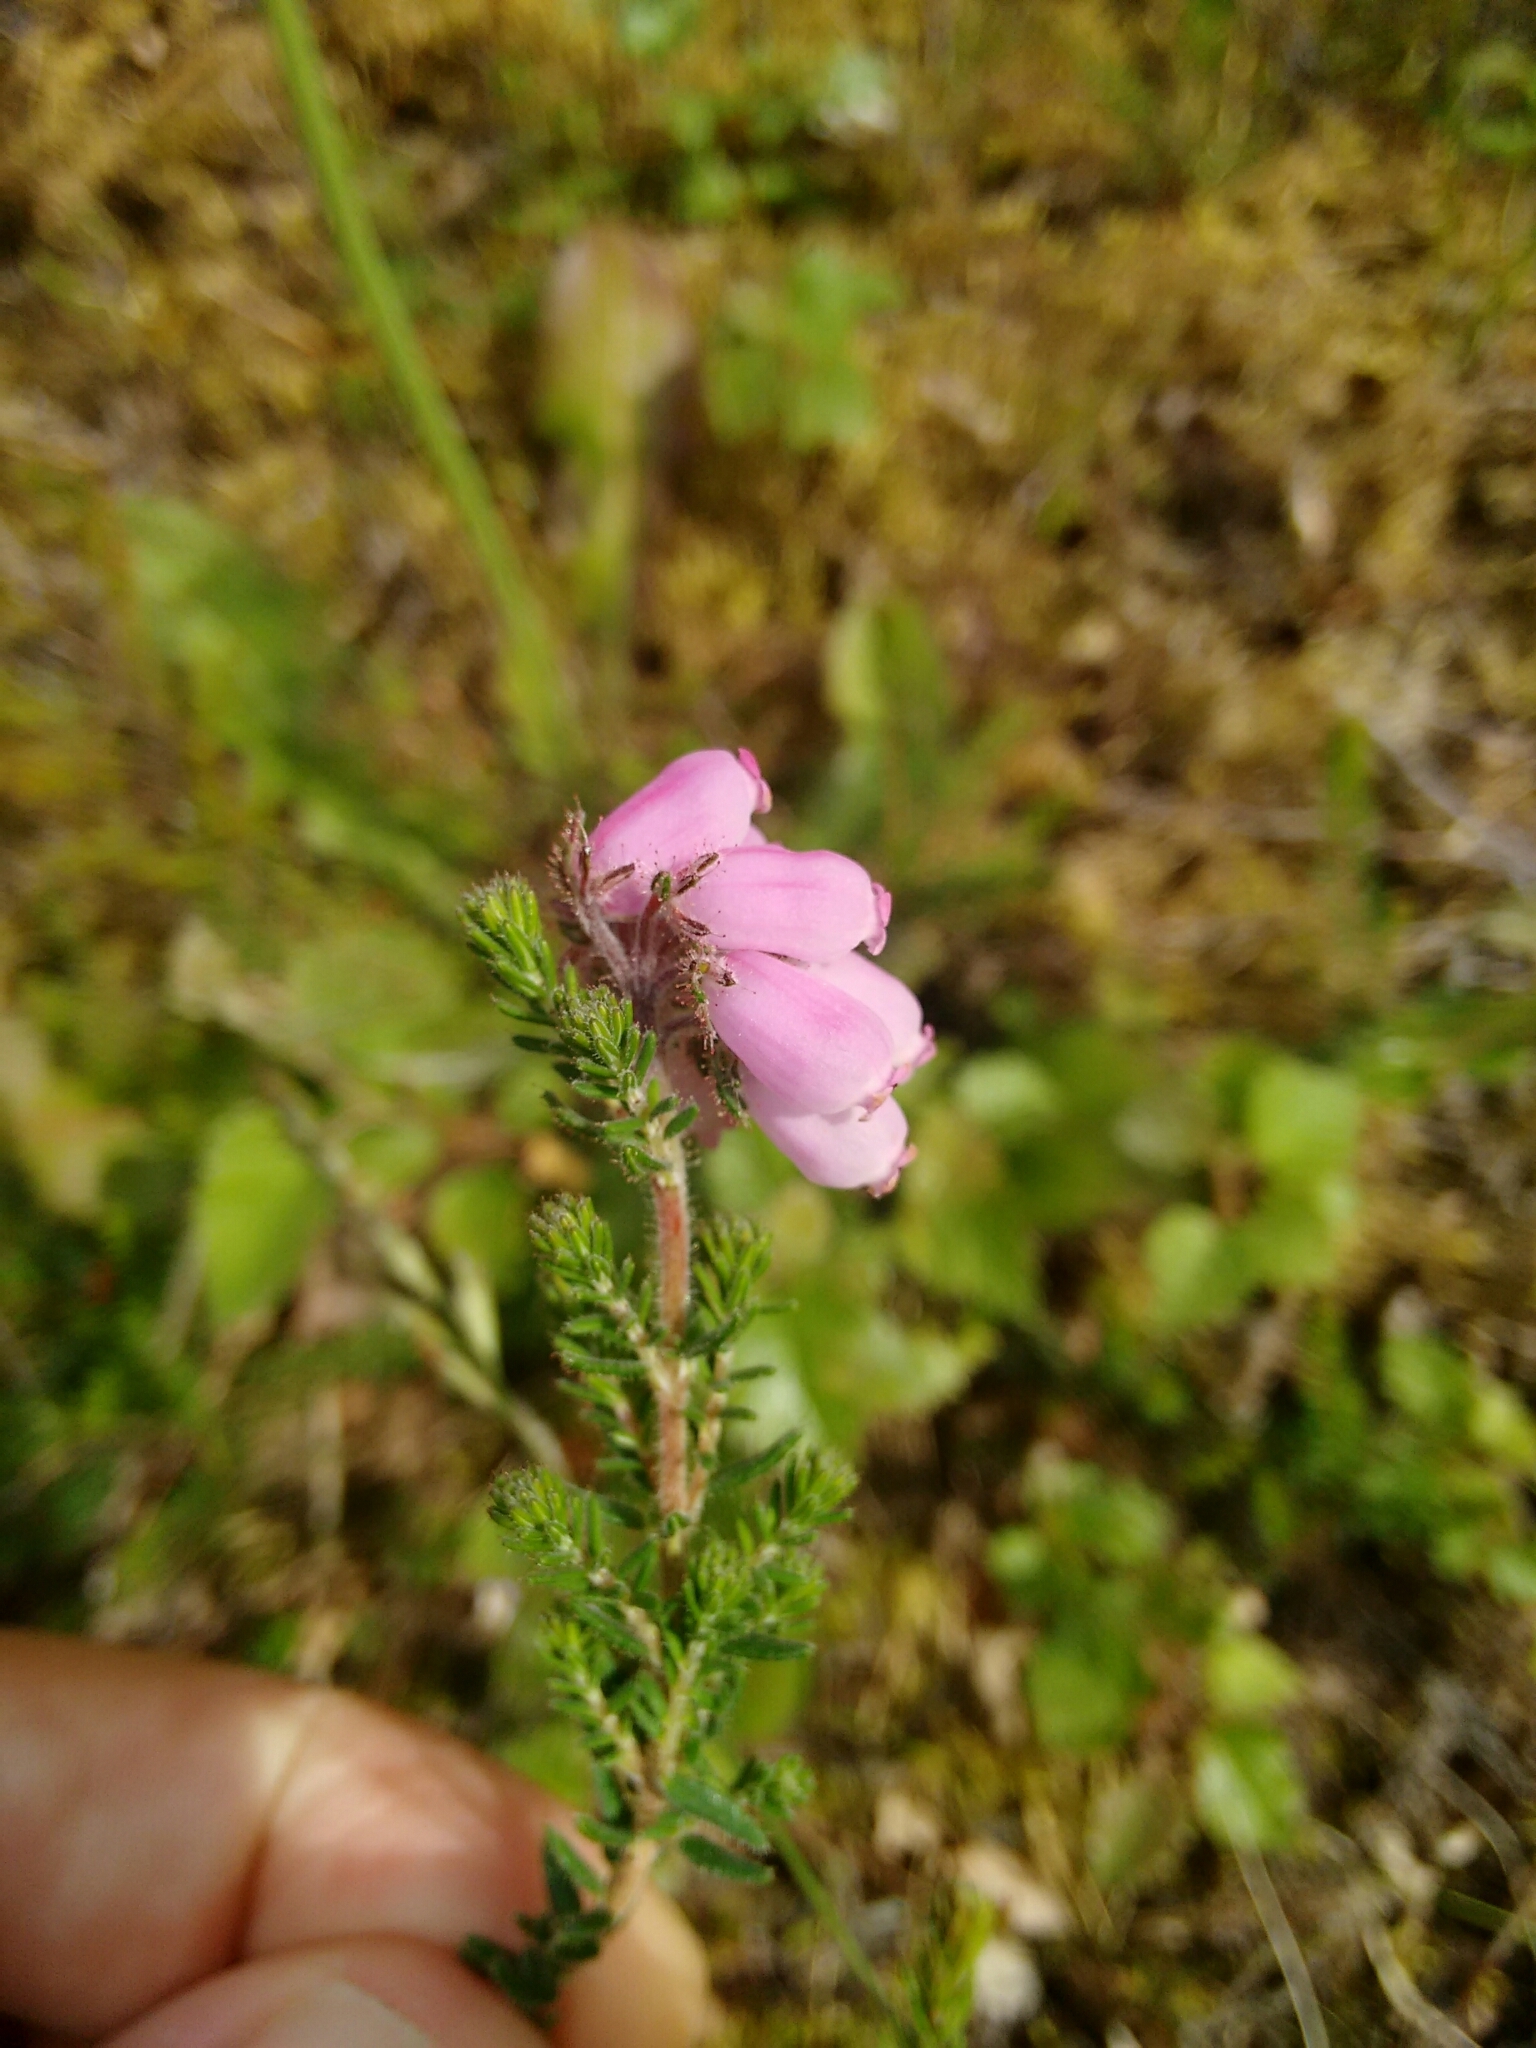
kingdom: Plantae
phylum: Tracheophyta
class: Magnoliopsida
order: Ericales
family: Ericaceae
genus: Erica
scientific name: Erica tetralix
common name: Cross-leaved heath
